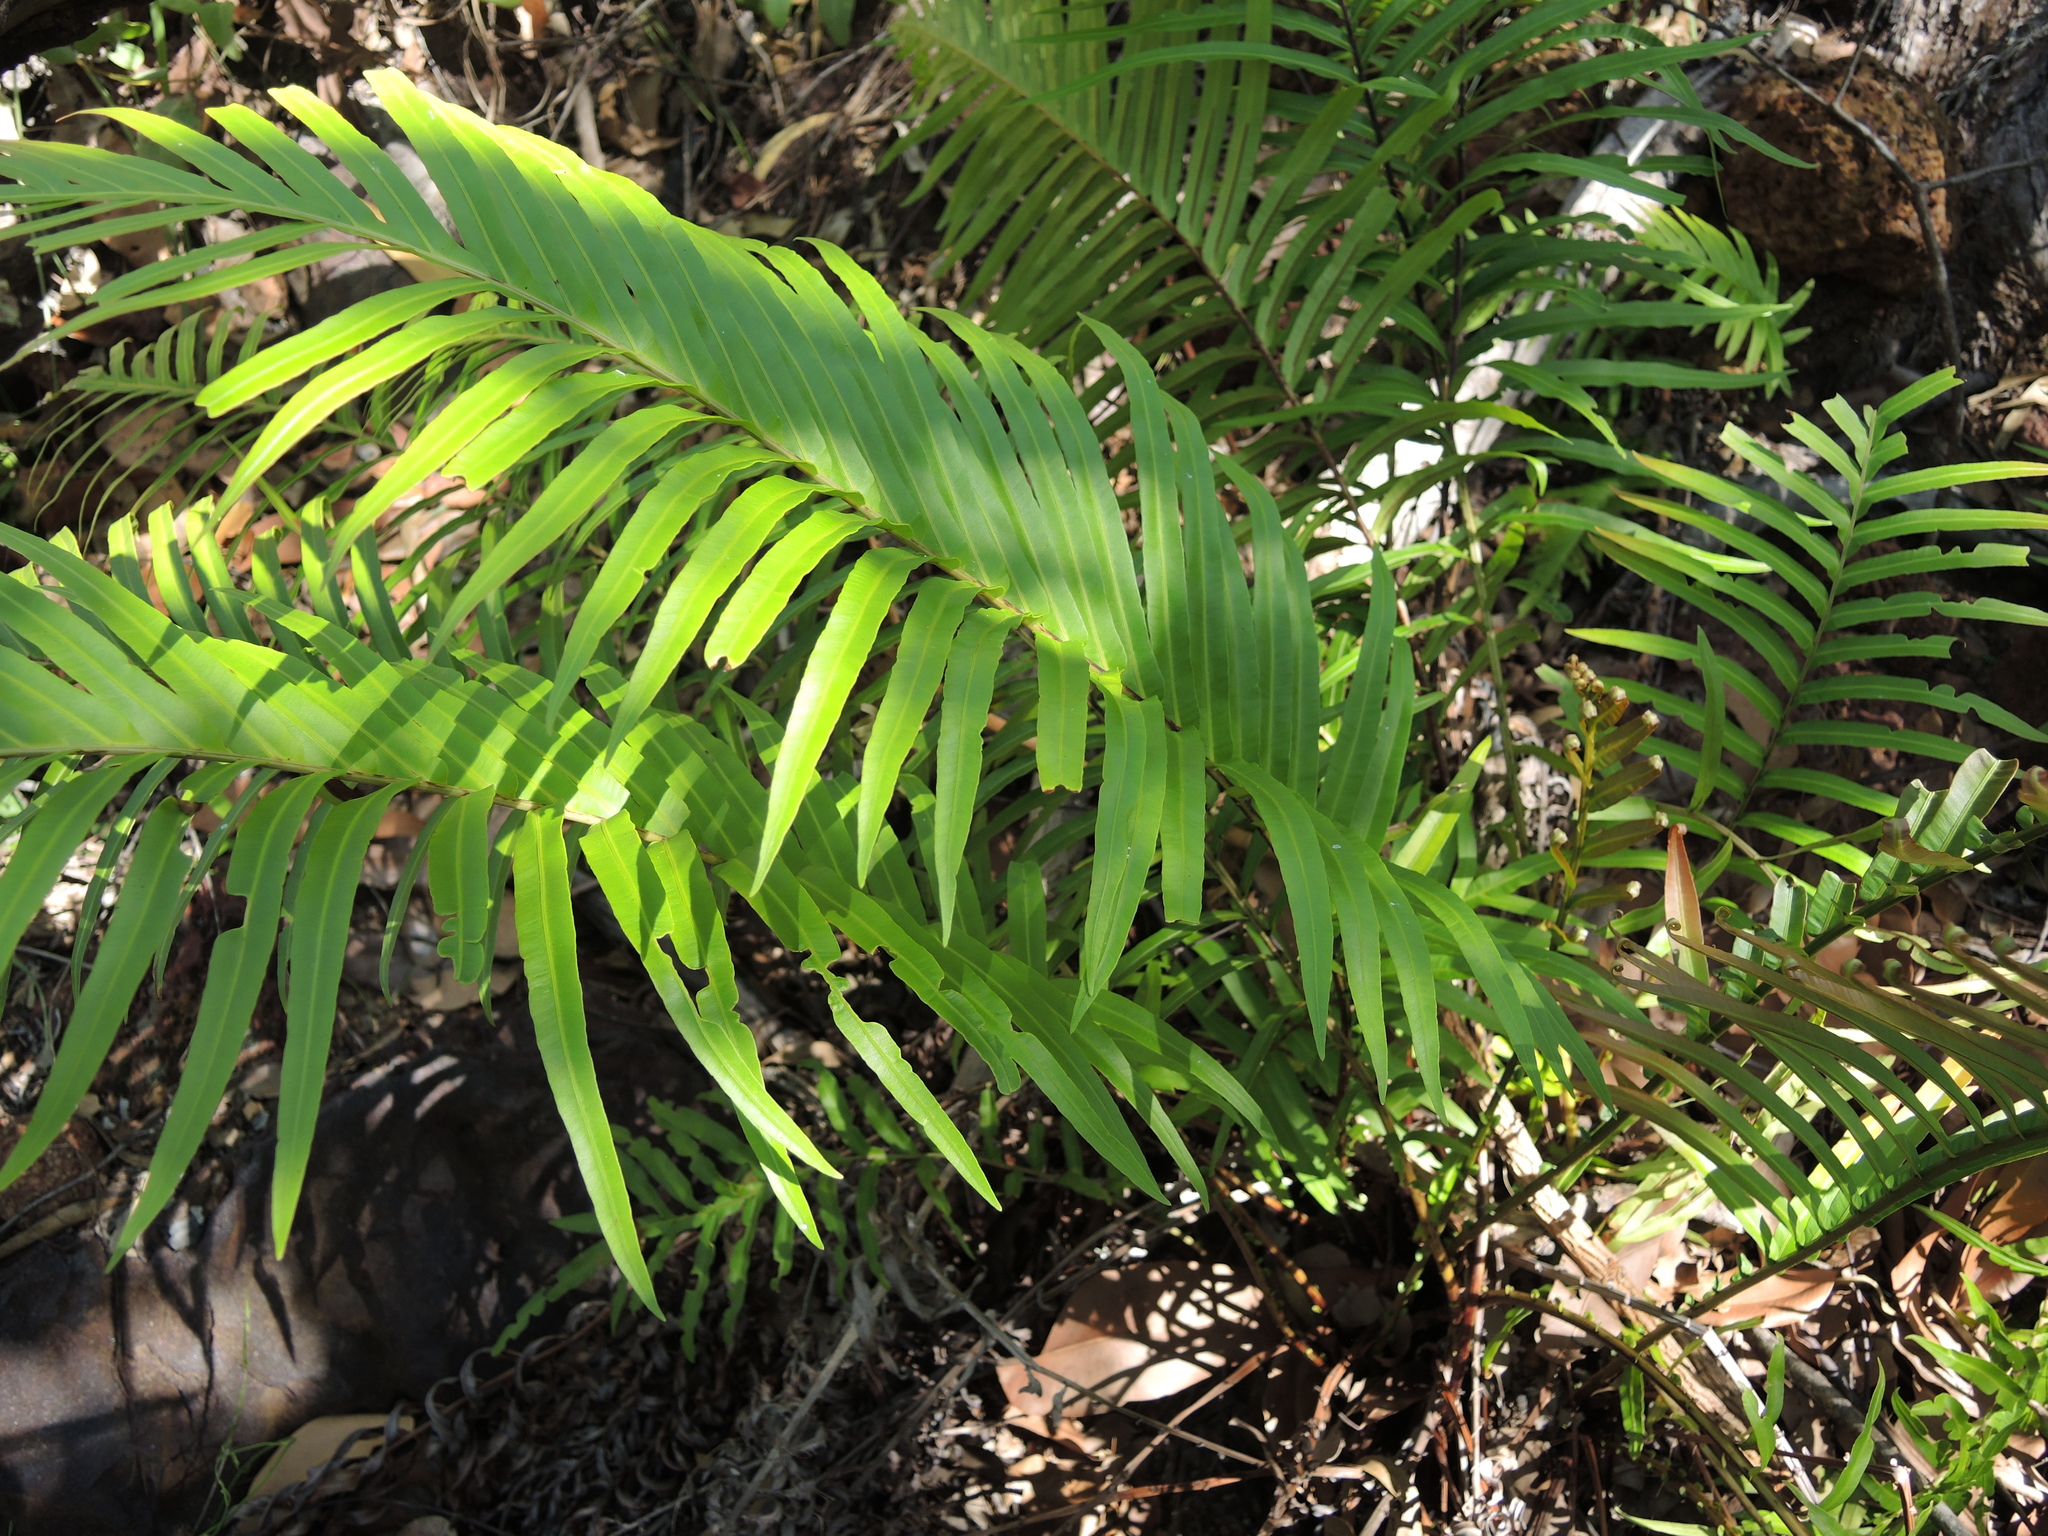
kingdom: Plantae
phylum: Tracheophyta
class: Polypodiopsida
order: Polypodiales
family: Blechnaceae
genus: Blechnopsis
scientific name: Blechnopsis orientalis
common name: Oriental blechnum
